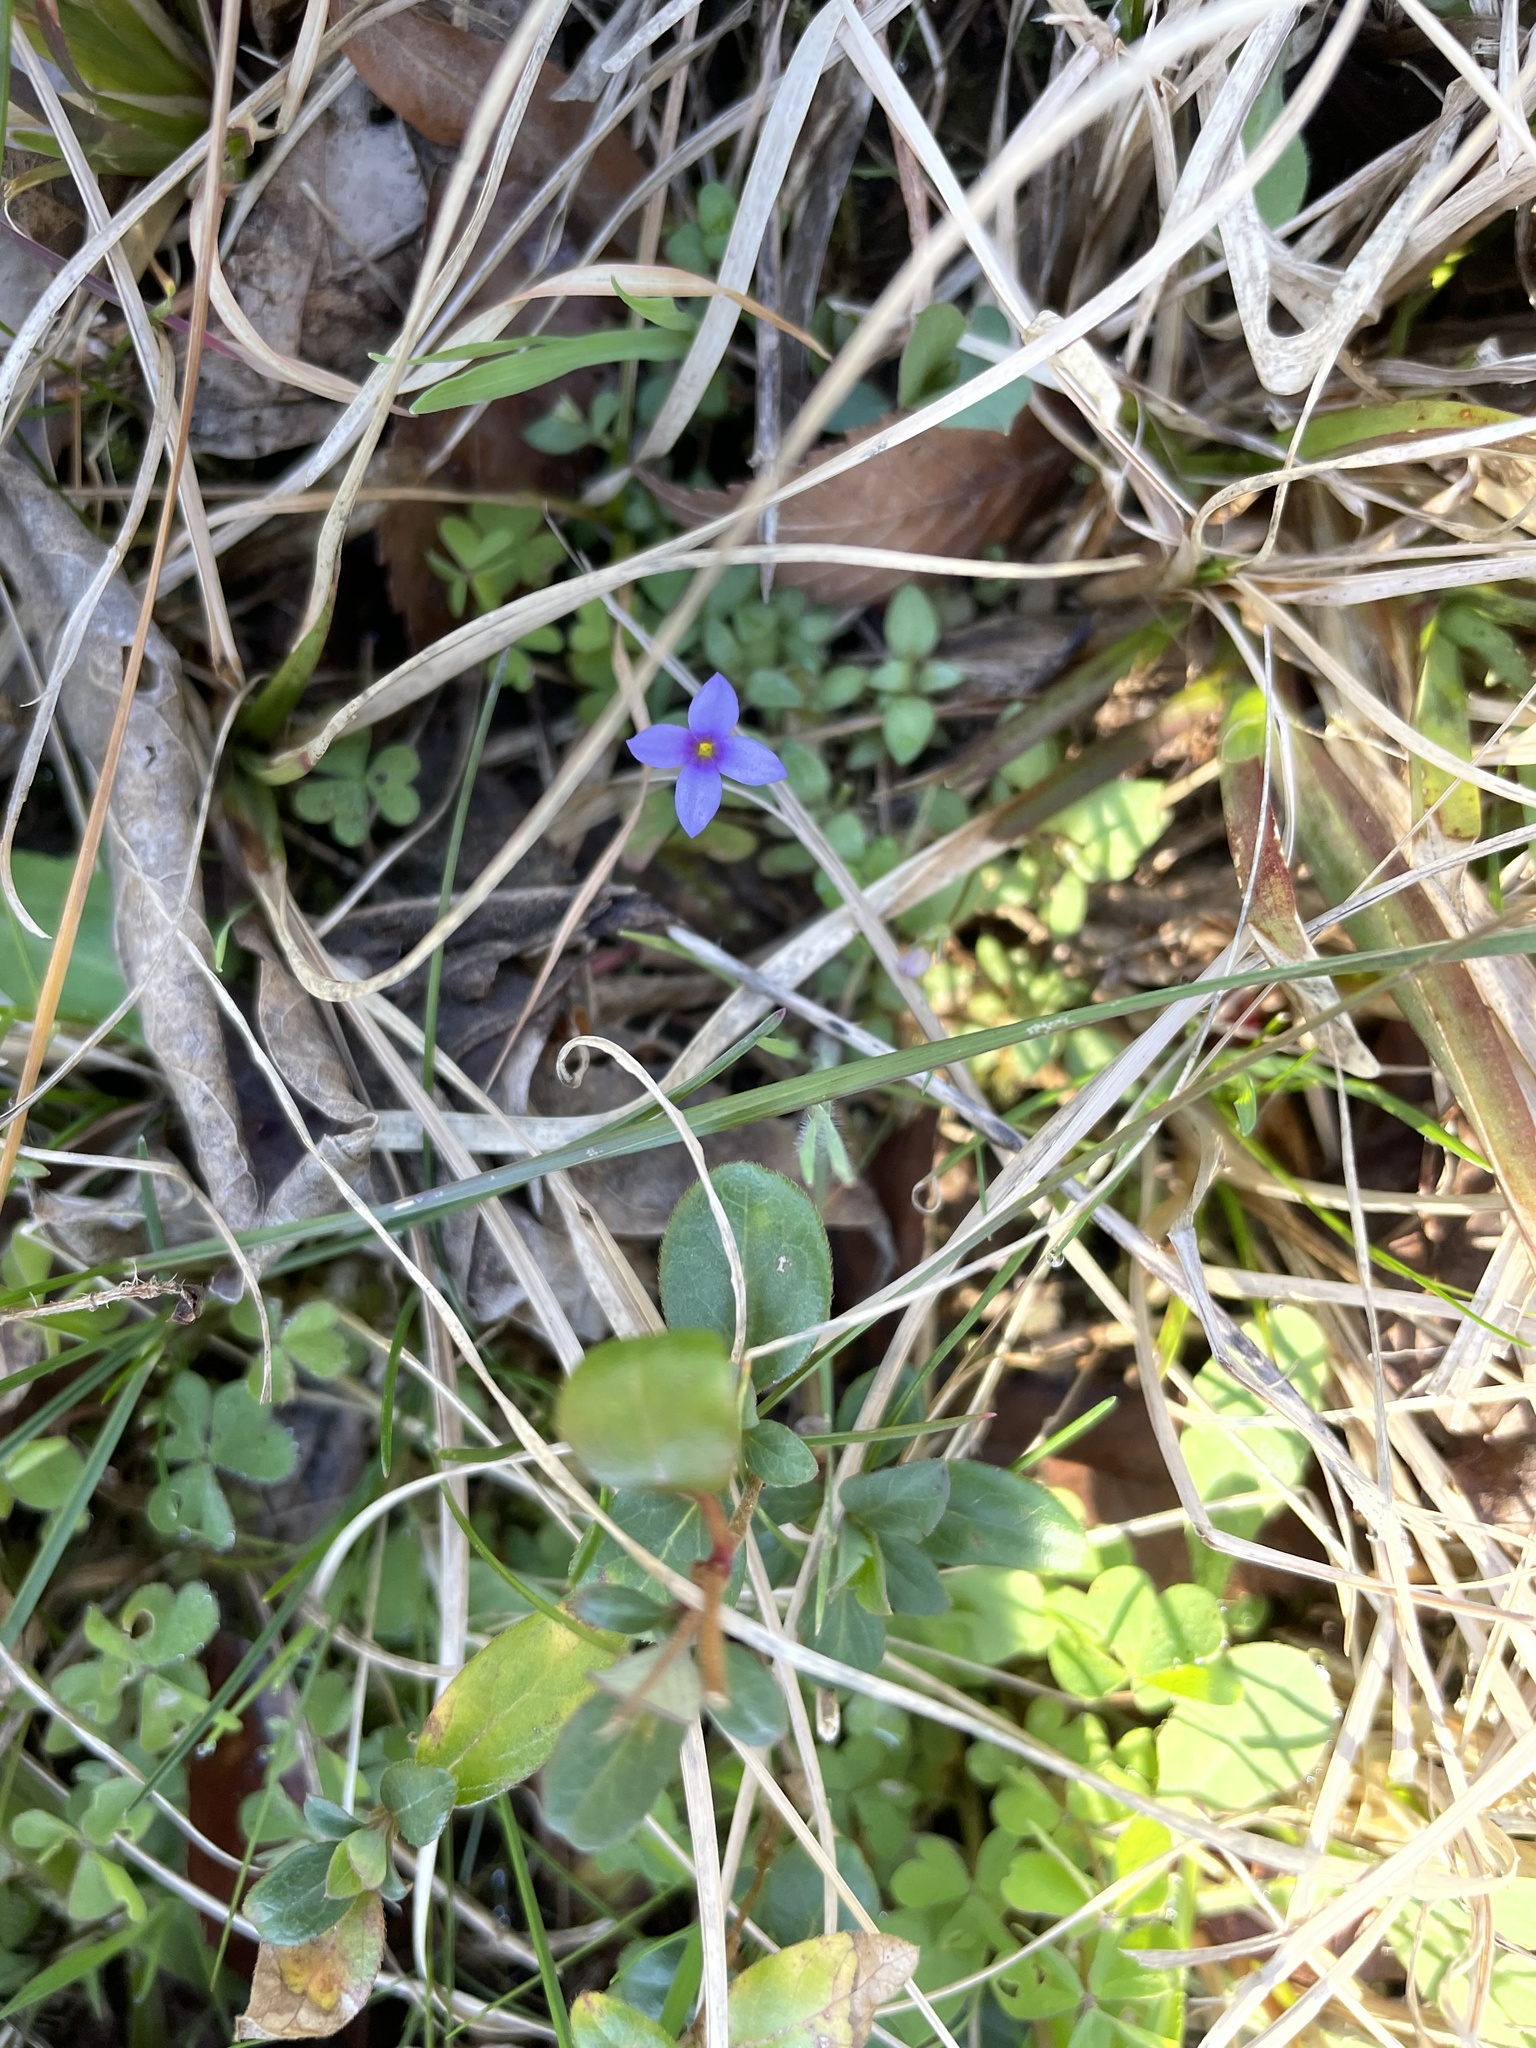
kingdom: Plantae
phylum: Tracheophyta
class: Magnoliopsida
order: Gentianales
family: Rubiaceae
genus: Houstonia
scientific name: Houstonia pusilla
